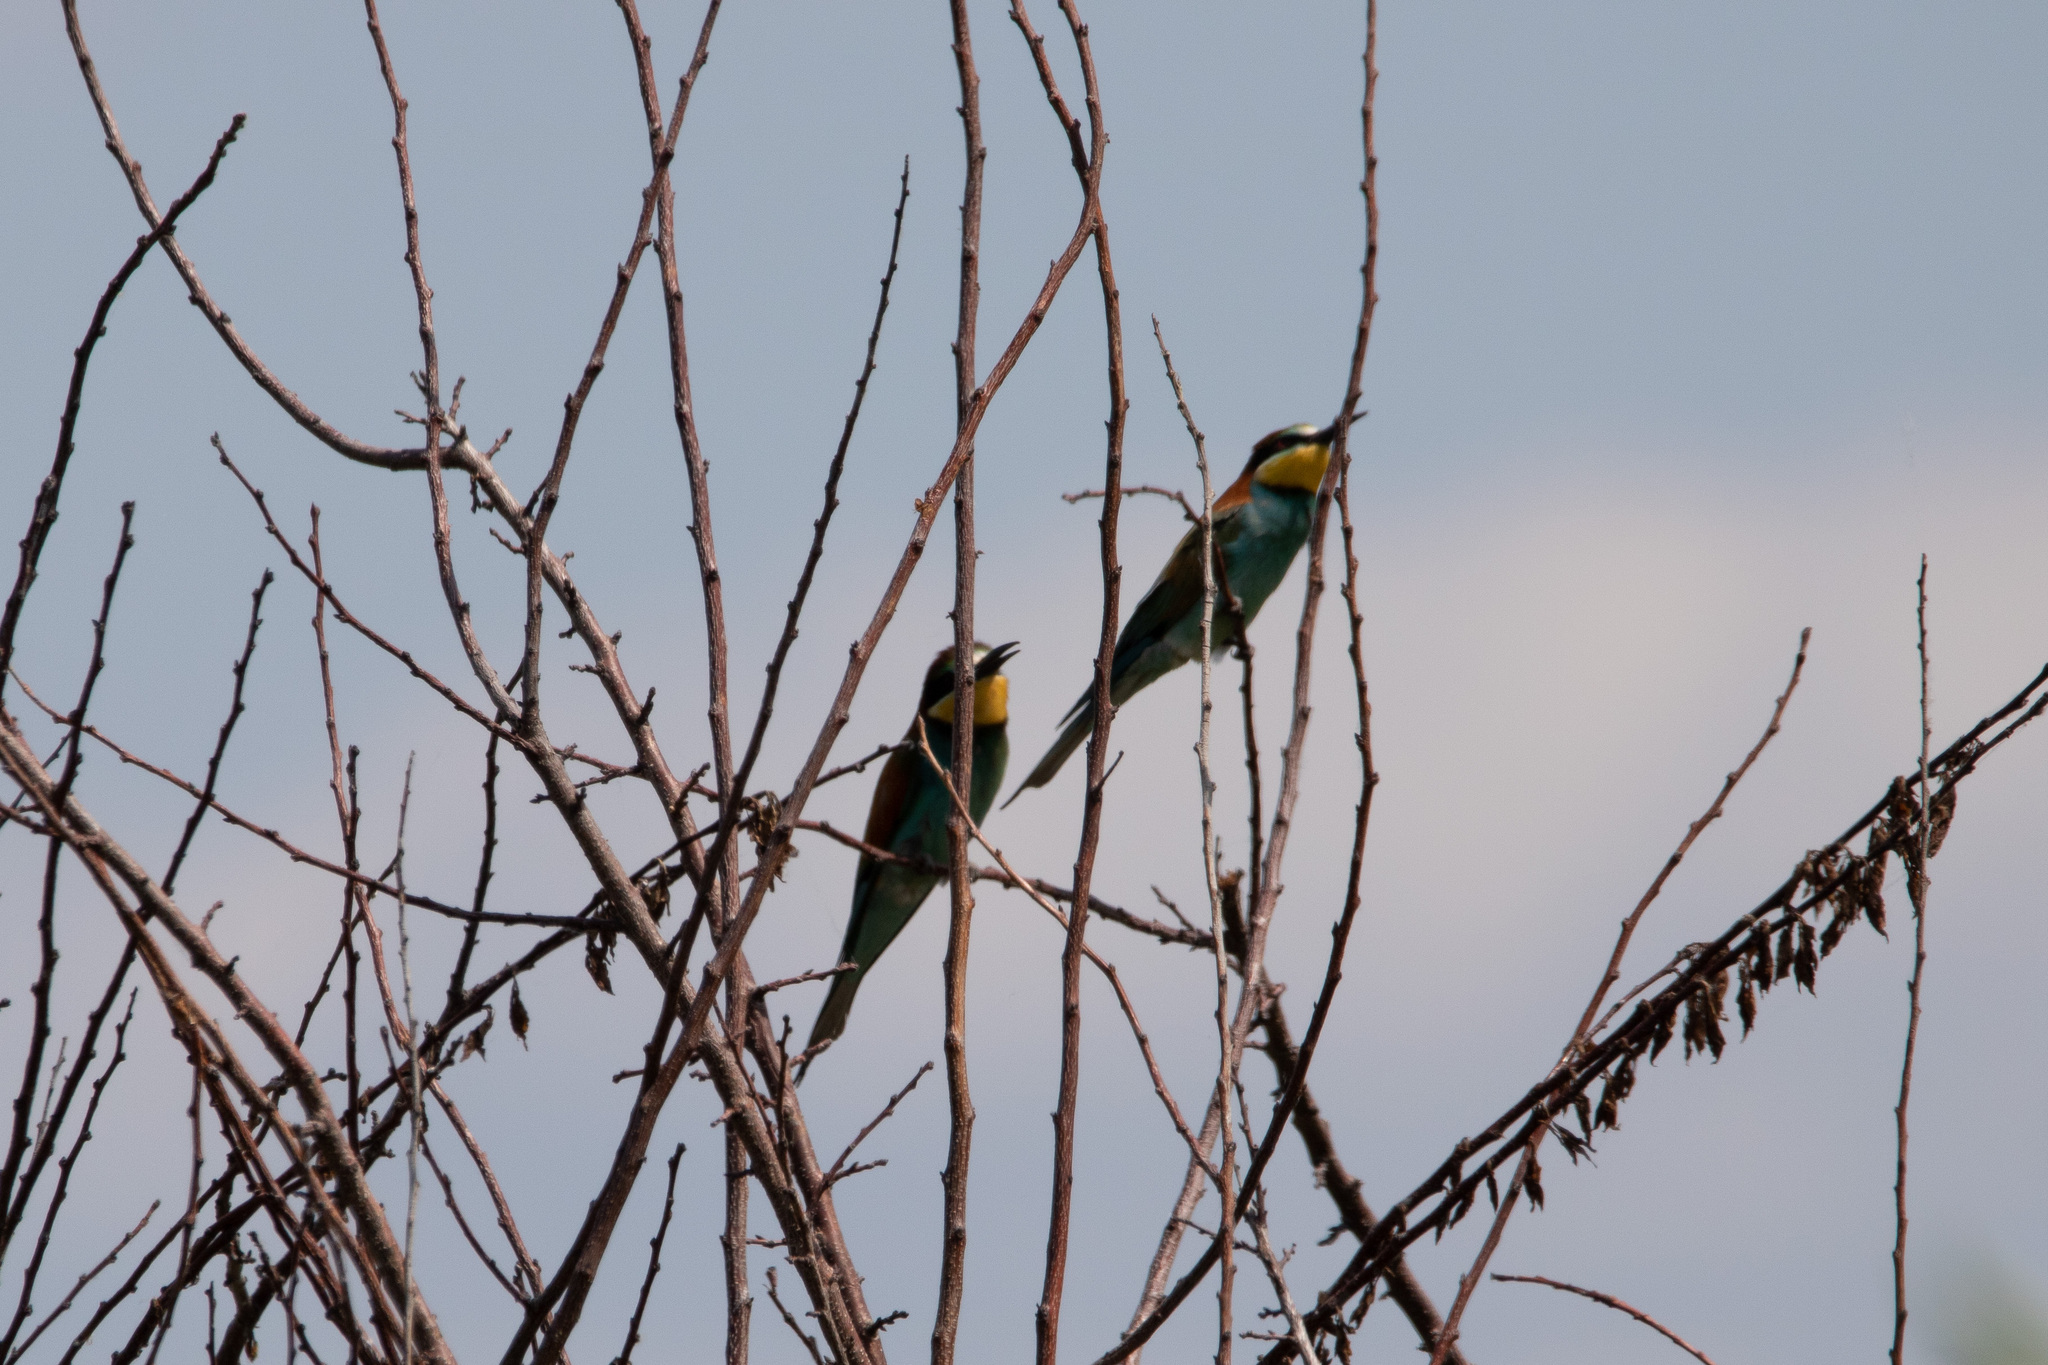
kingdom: Animalia
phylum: Chordata
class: Aves
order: Coraciiformes
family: Meropidae
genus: Merops
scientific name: Merops apiaster
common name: European bee-eater
